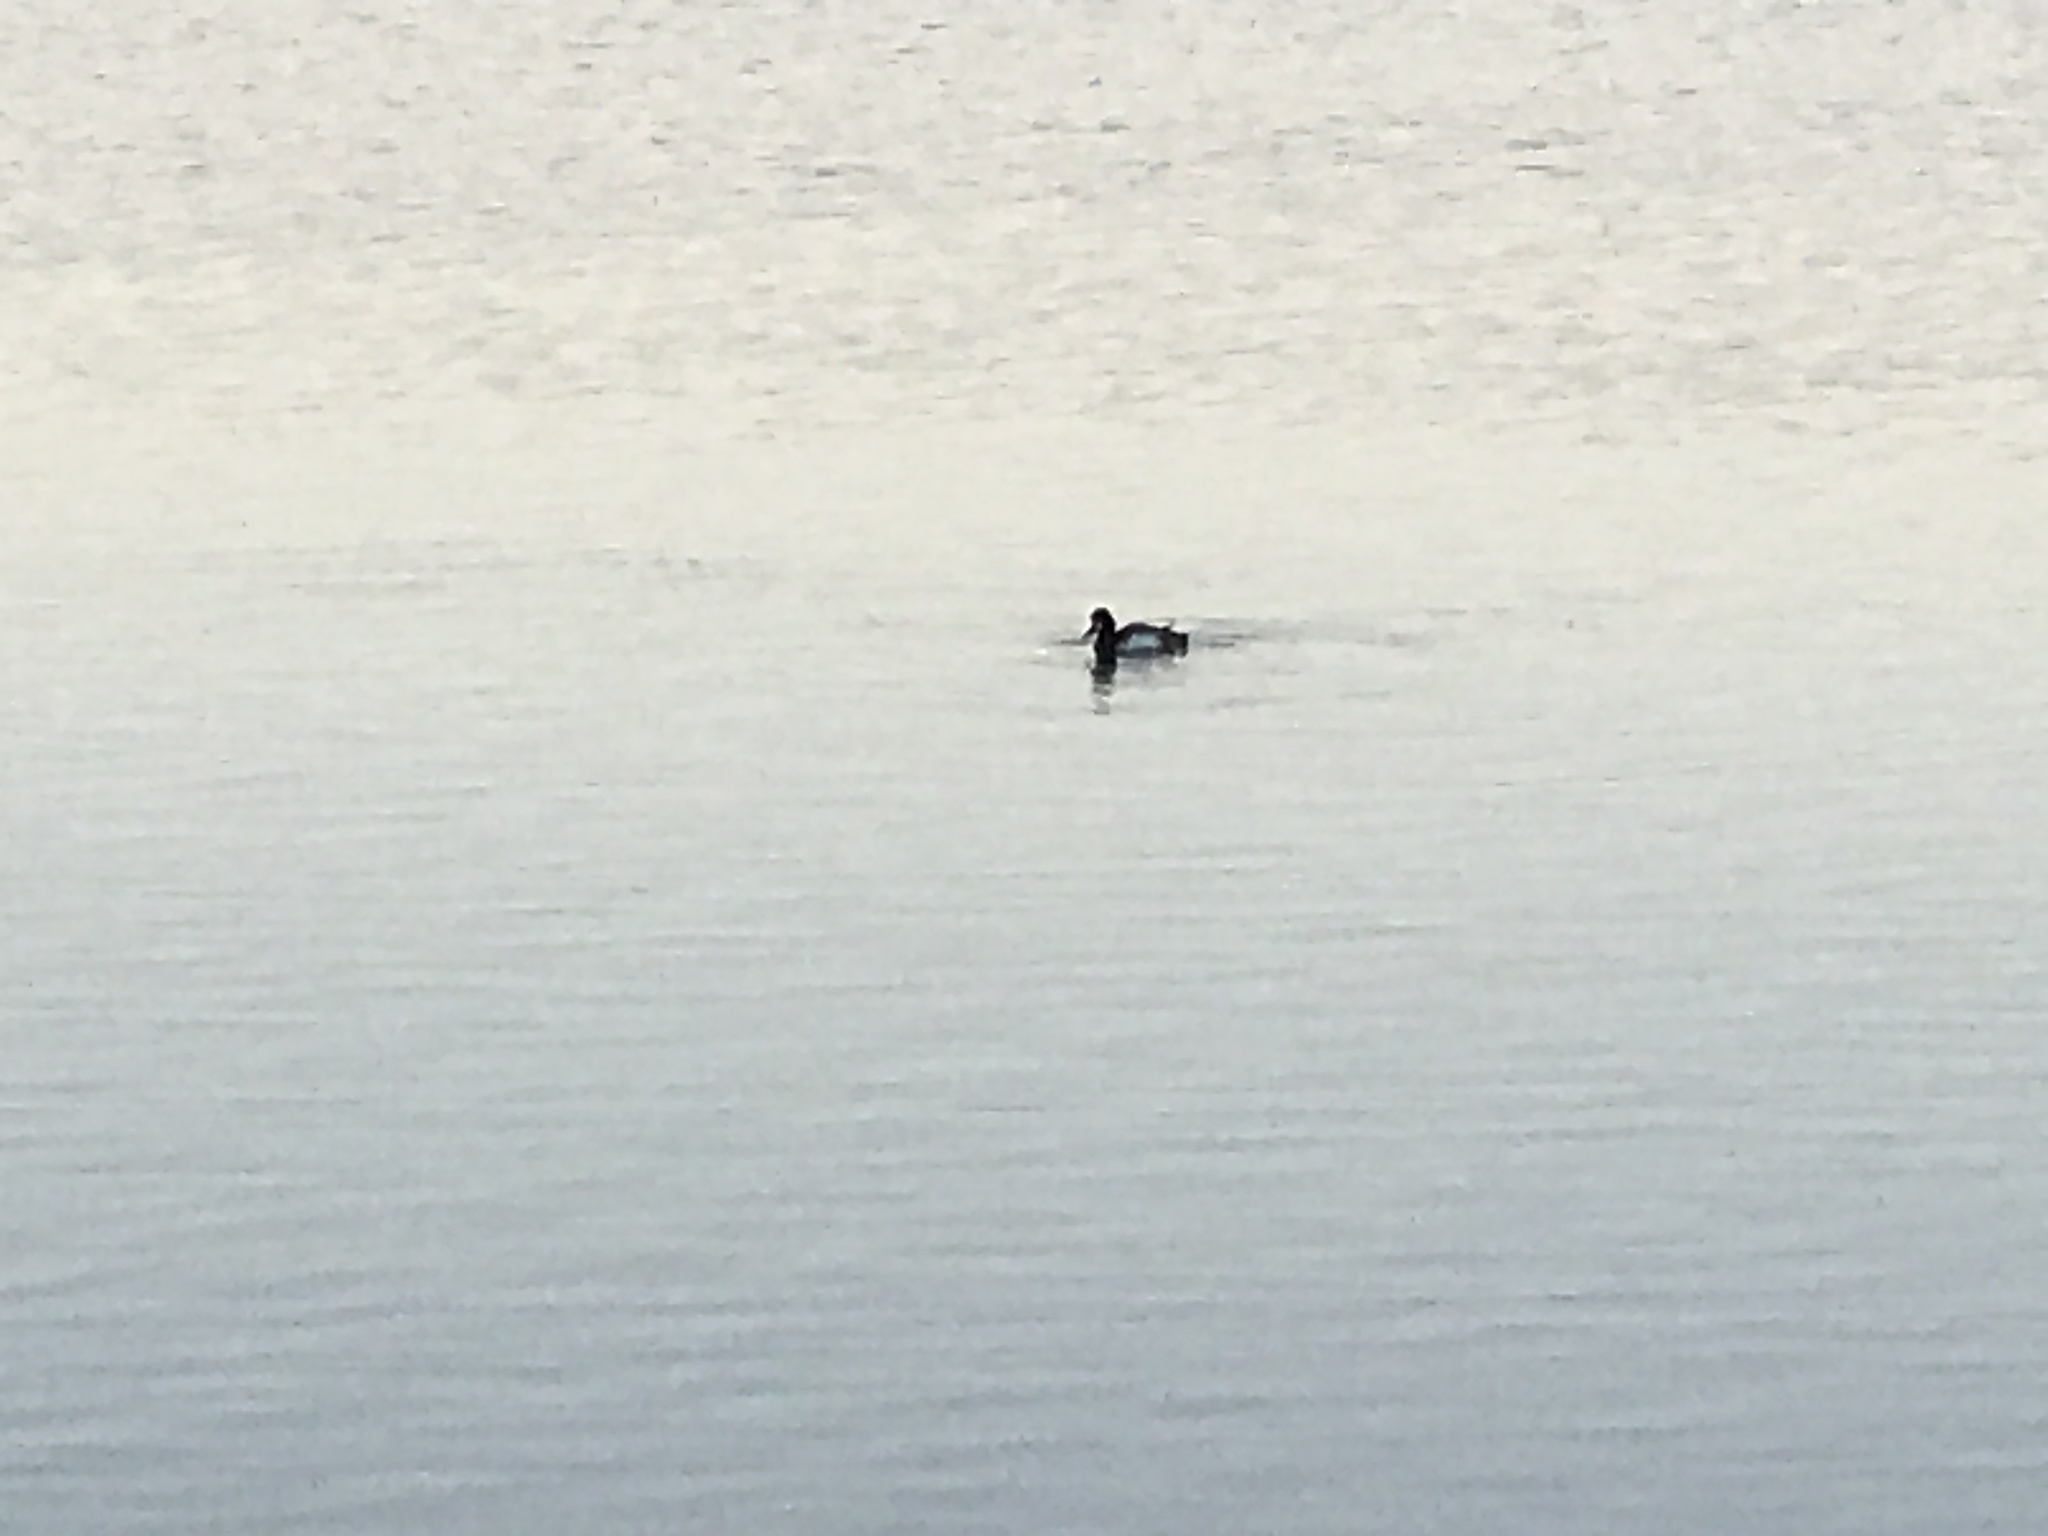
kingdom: Animalia
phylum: Chordata
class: Aves
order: Anseriformes
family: Anatidae
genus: Aythya
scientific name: Aythya affinis
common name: Lesser scaup
